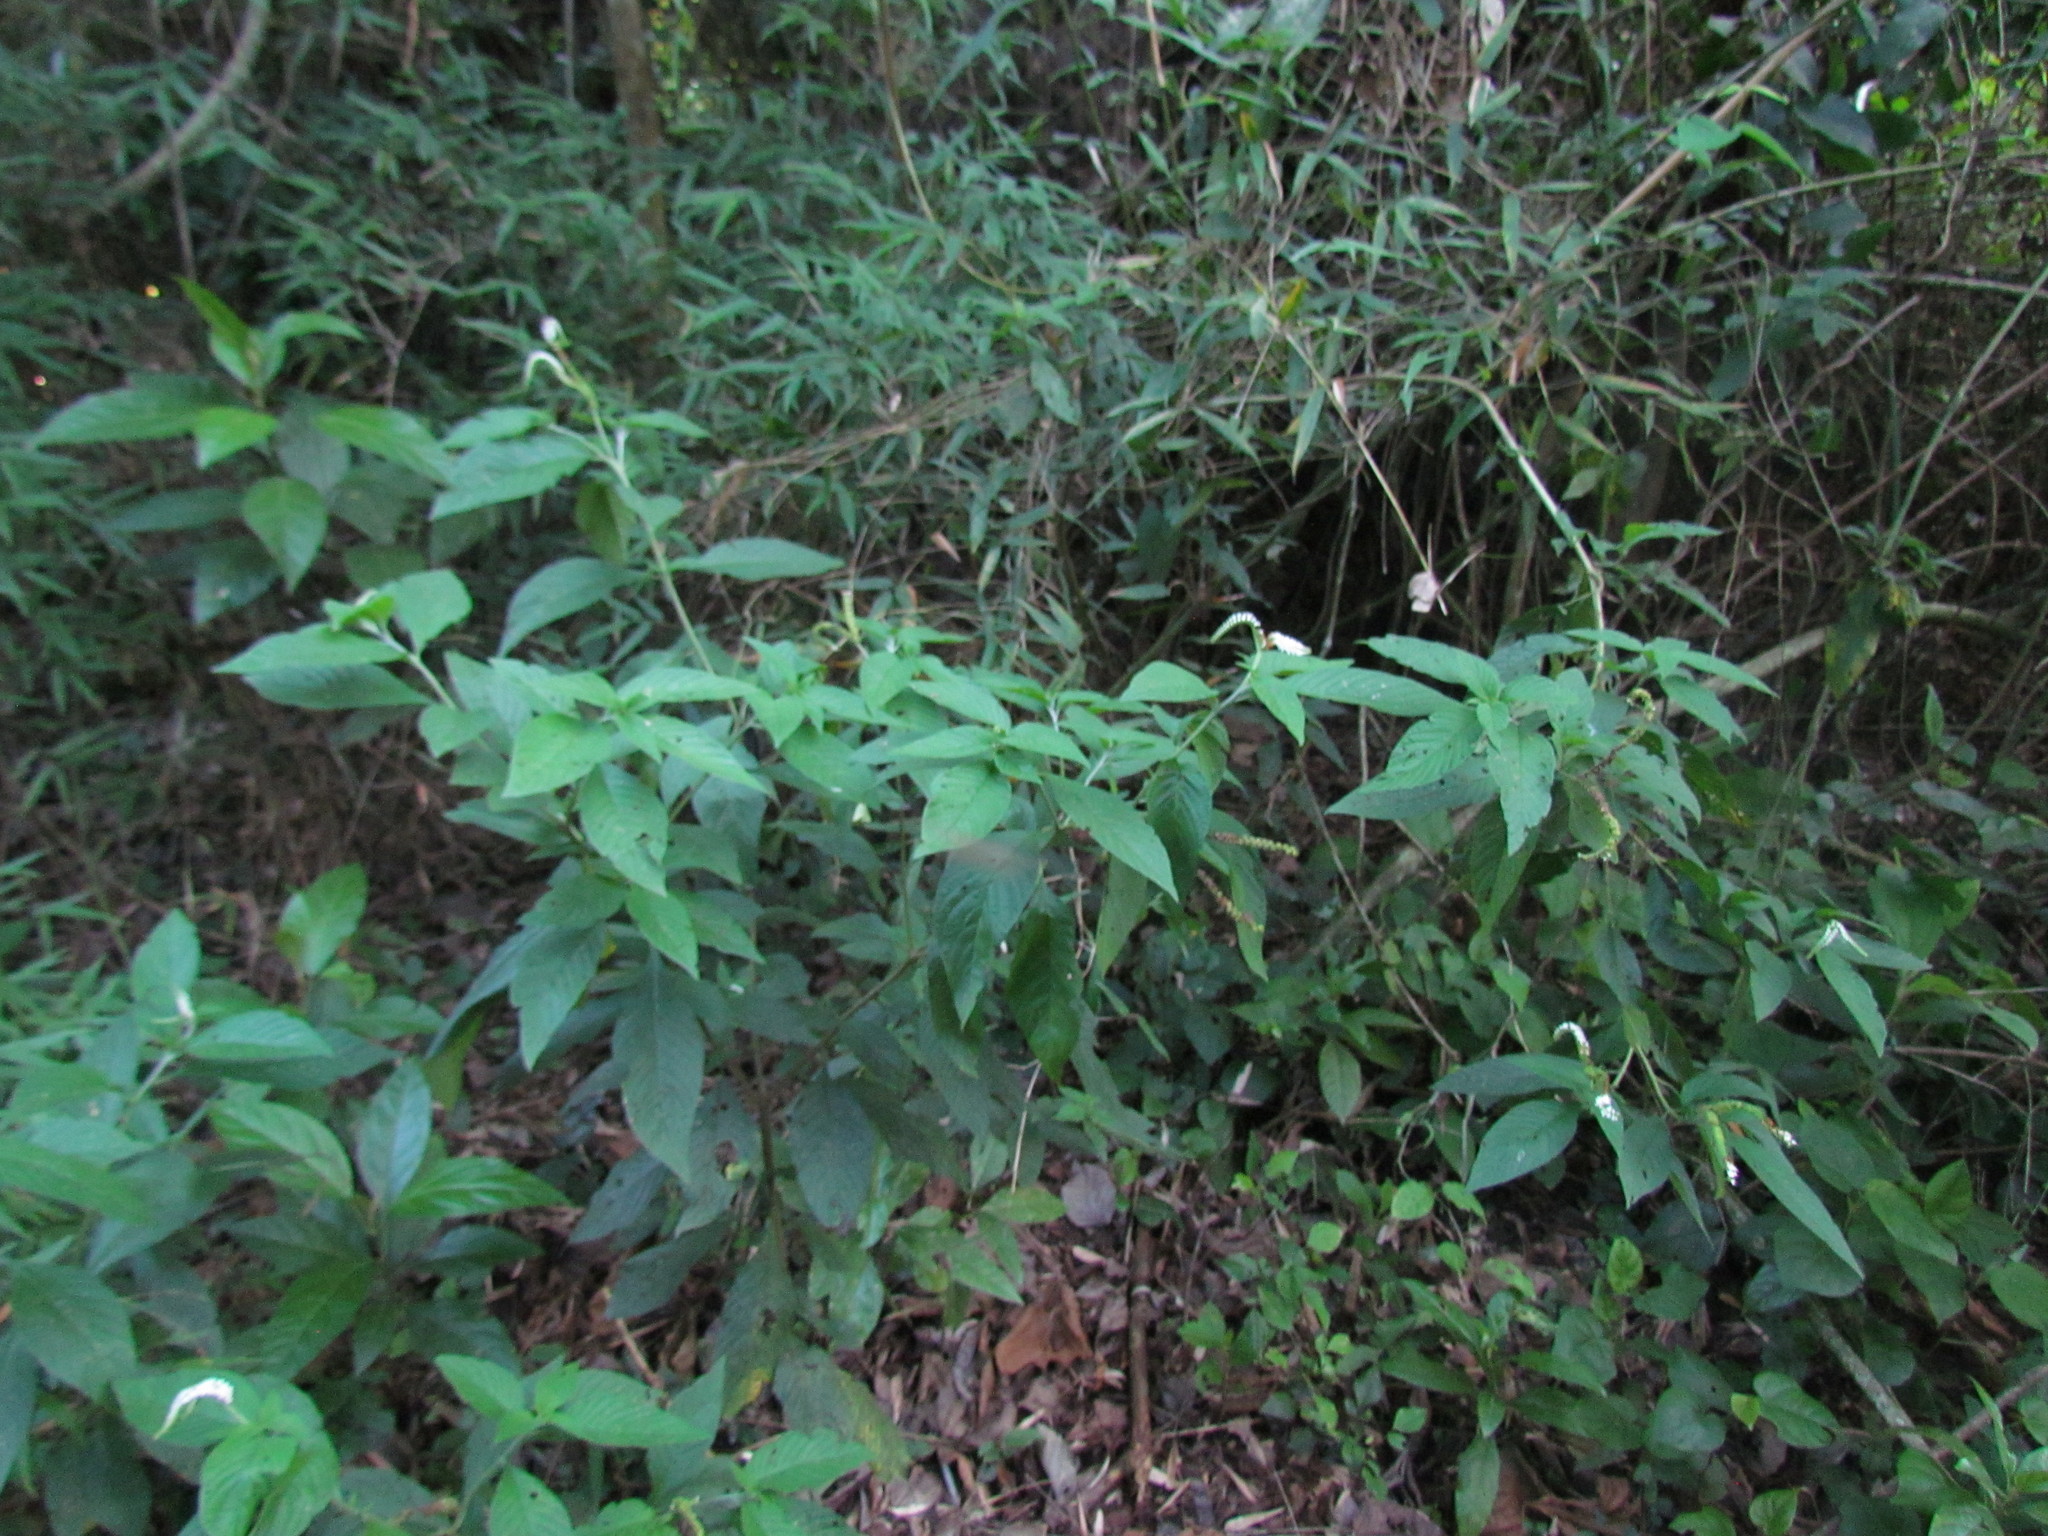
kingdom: Plantae
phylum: Tracheophyta
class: Magnoliopsida
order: Boraginales
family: Heliotropiaceae
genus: Heliotropium
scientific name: Heliotropium transalpinum
